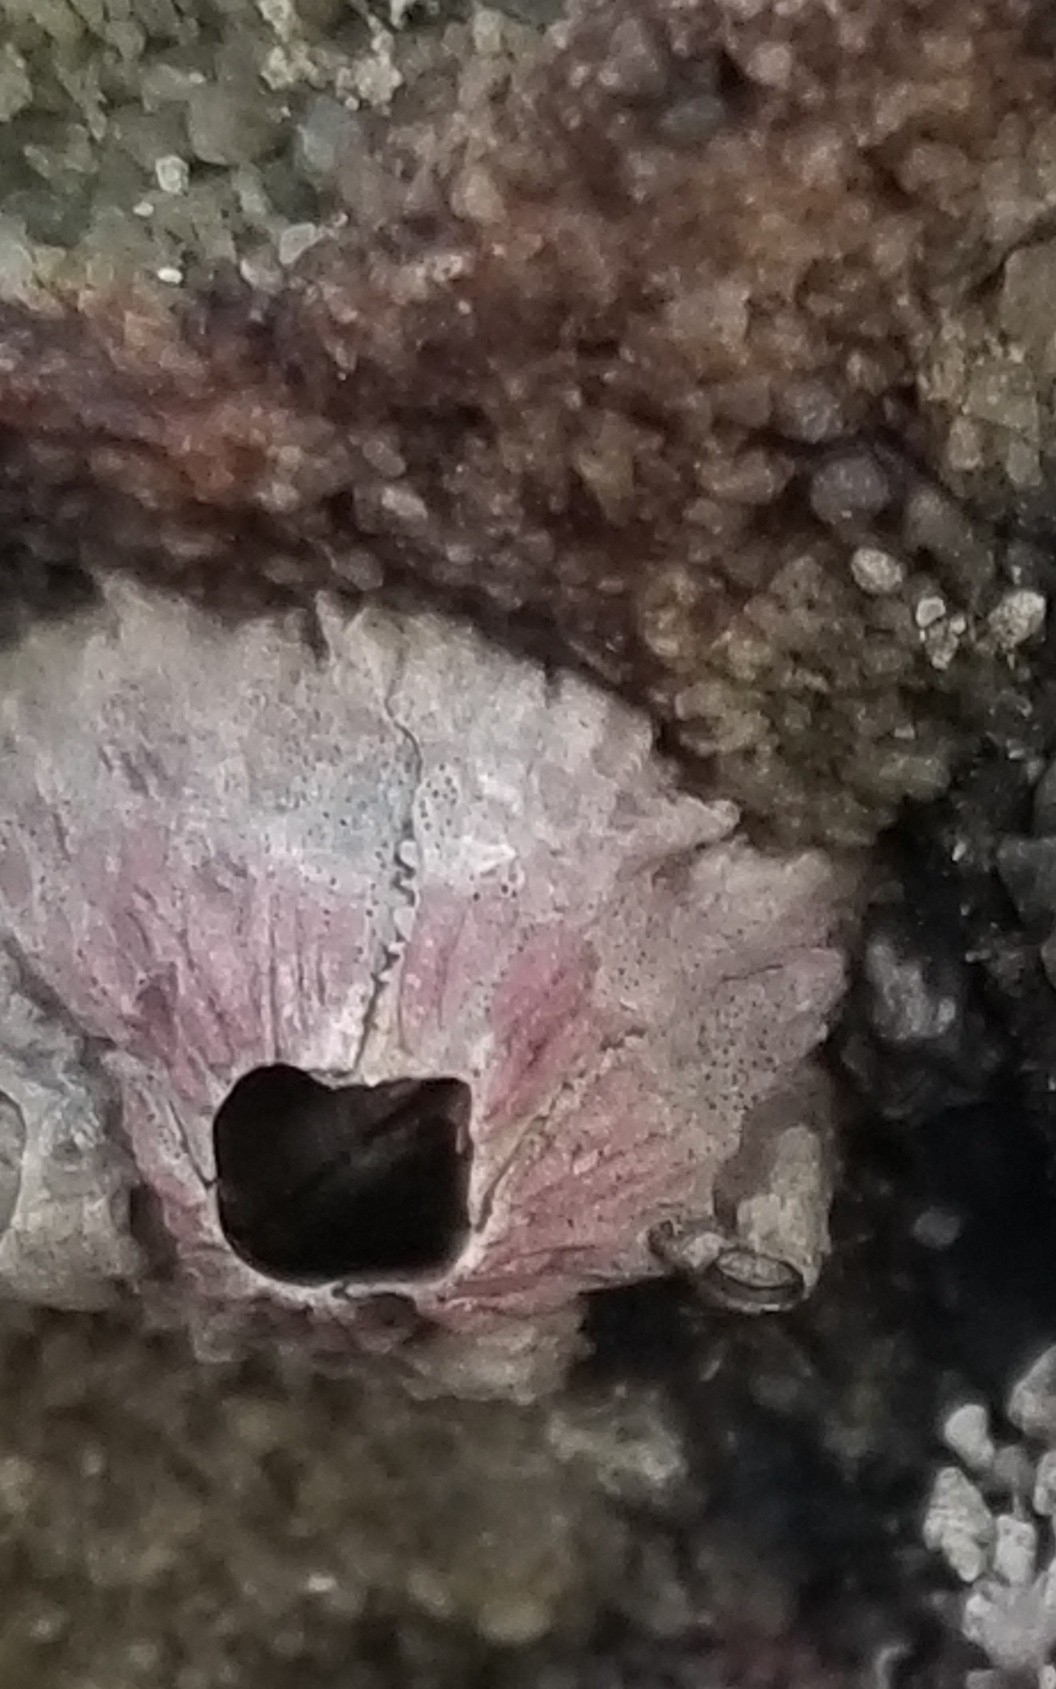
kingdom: Animalia
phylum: Arthropoda
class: Maxillopoda
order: Sessilia
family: Tetraclitidae
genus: Tetraclita
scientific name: Tetraclita rubescens
